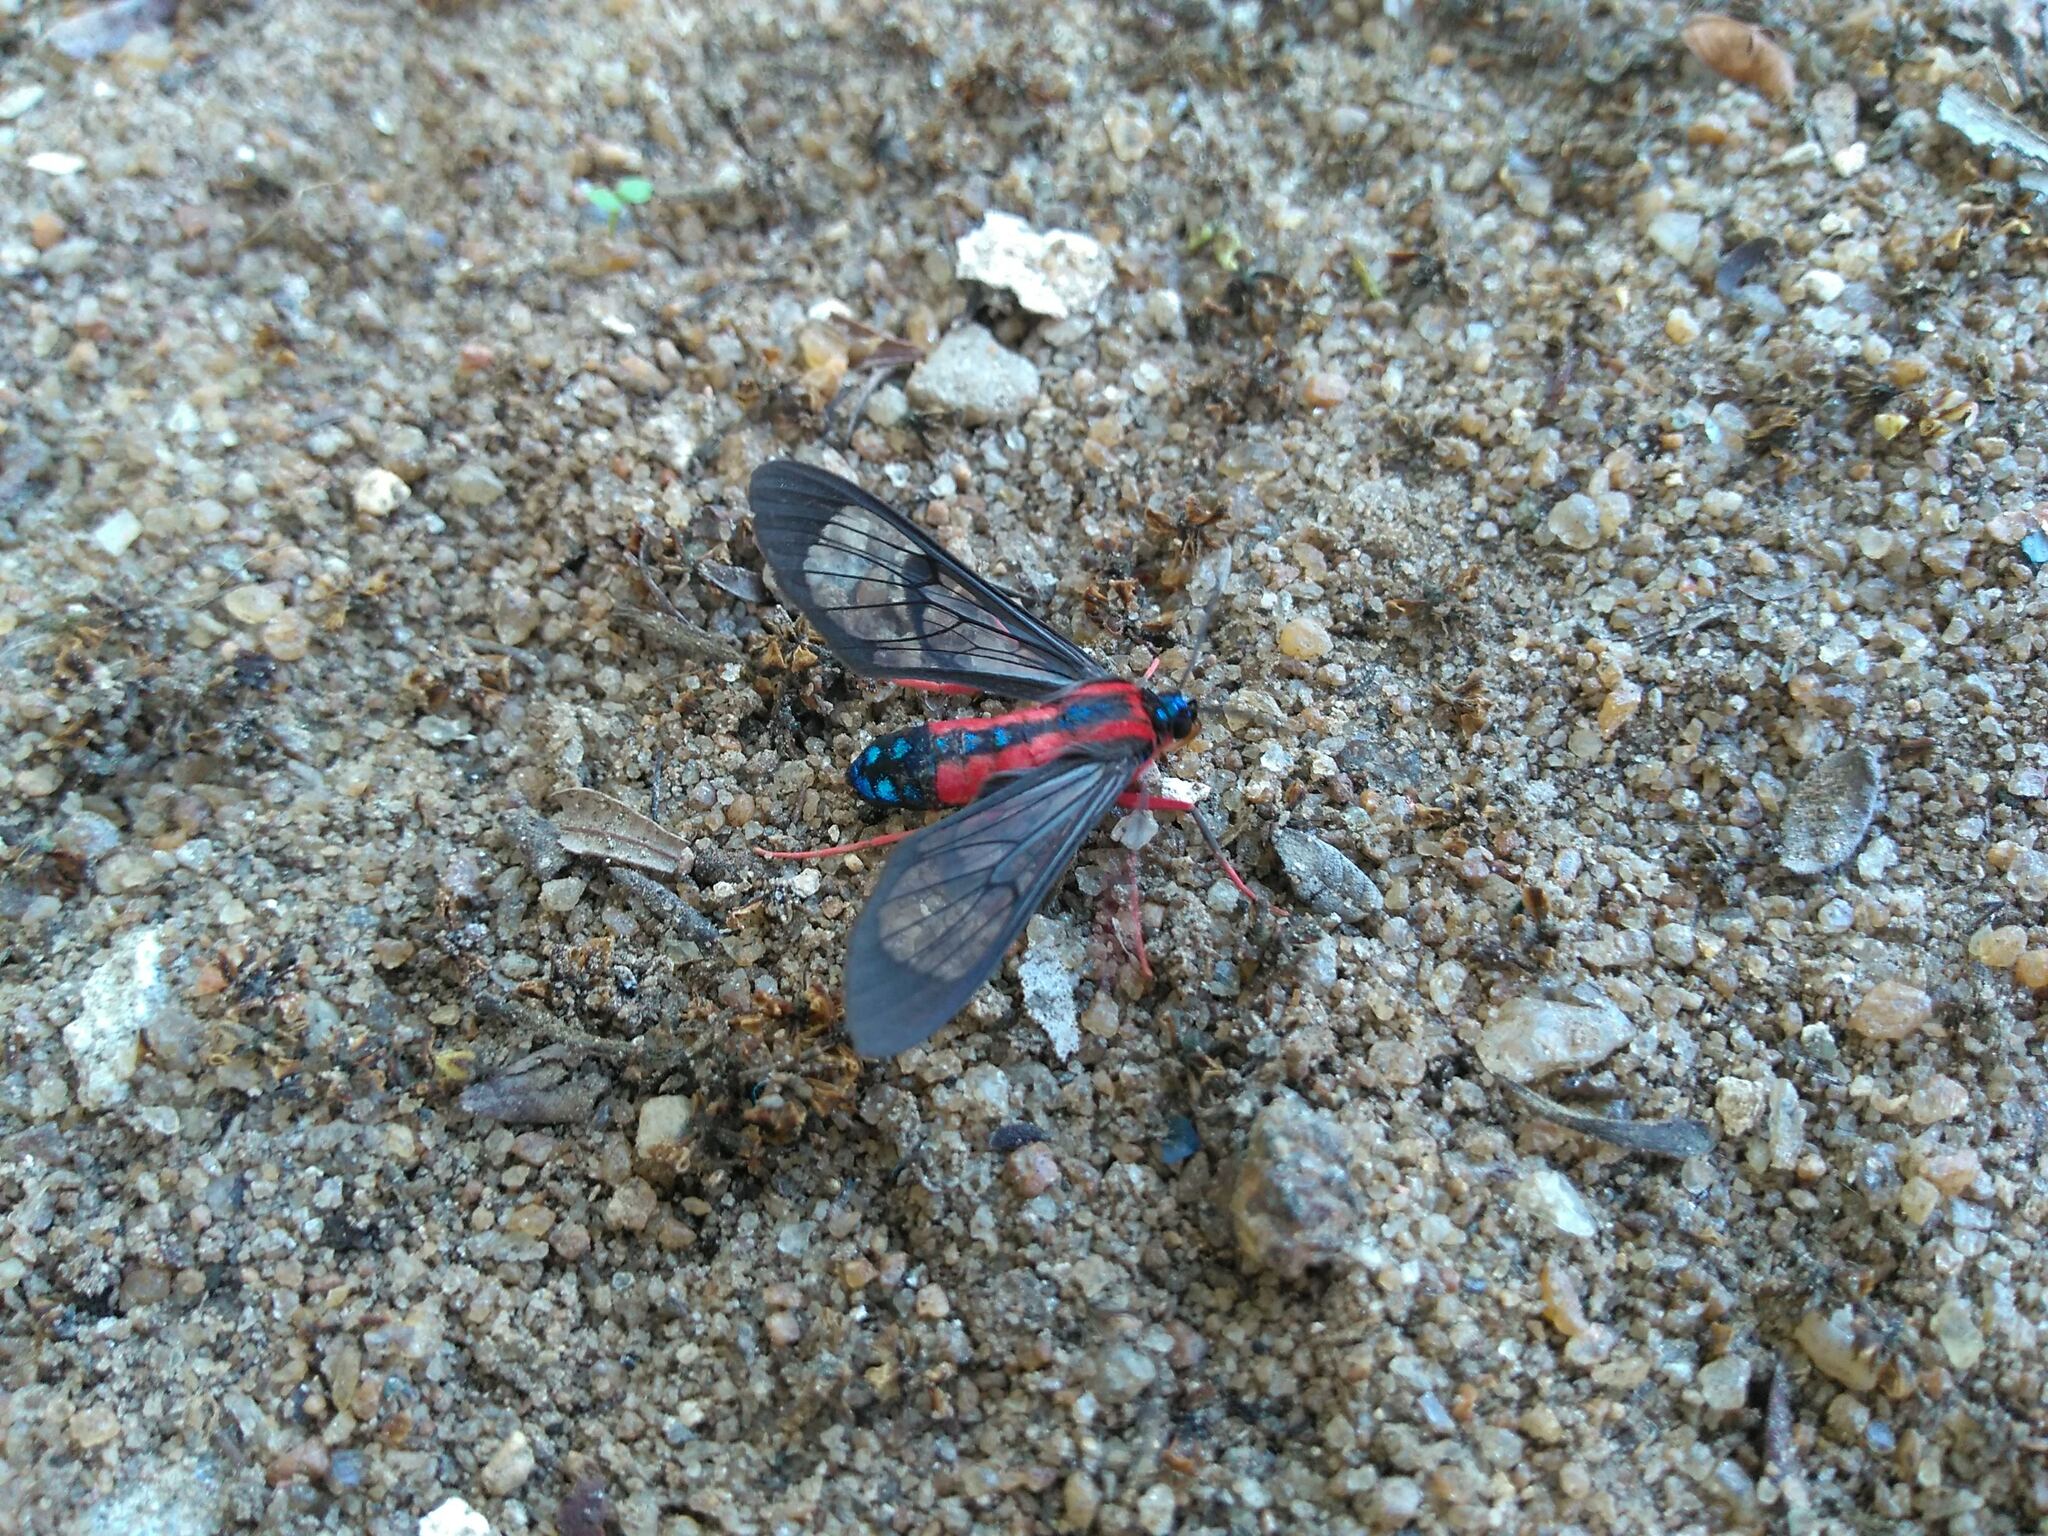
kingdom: Animalia
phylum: Arthropoda
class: Insecta
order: Lepidoptera
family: Erebidae
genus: Cosmosoma
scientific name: Cosmosoma auge
